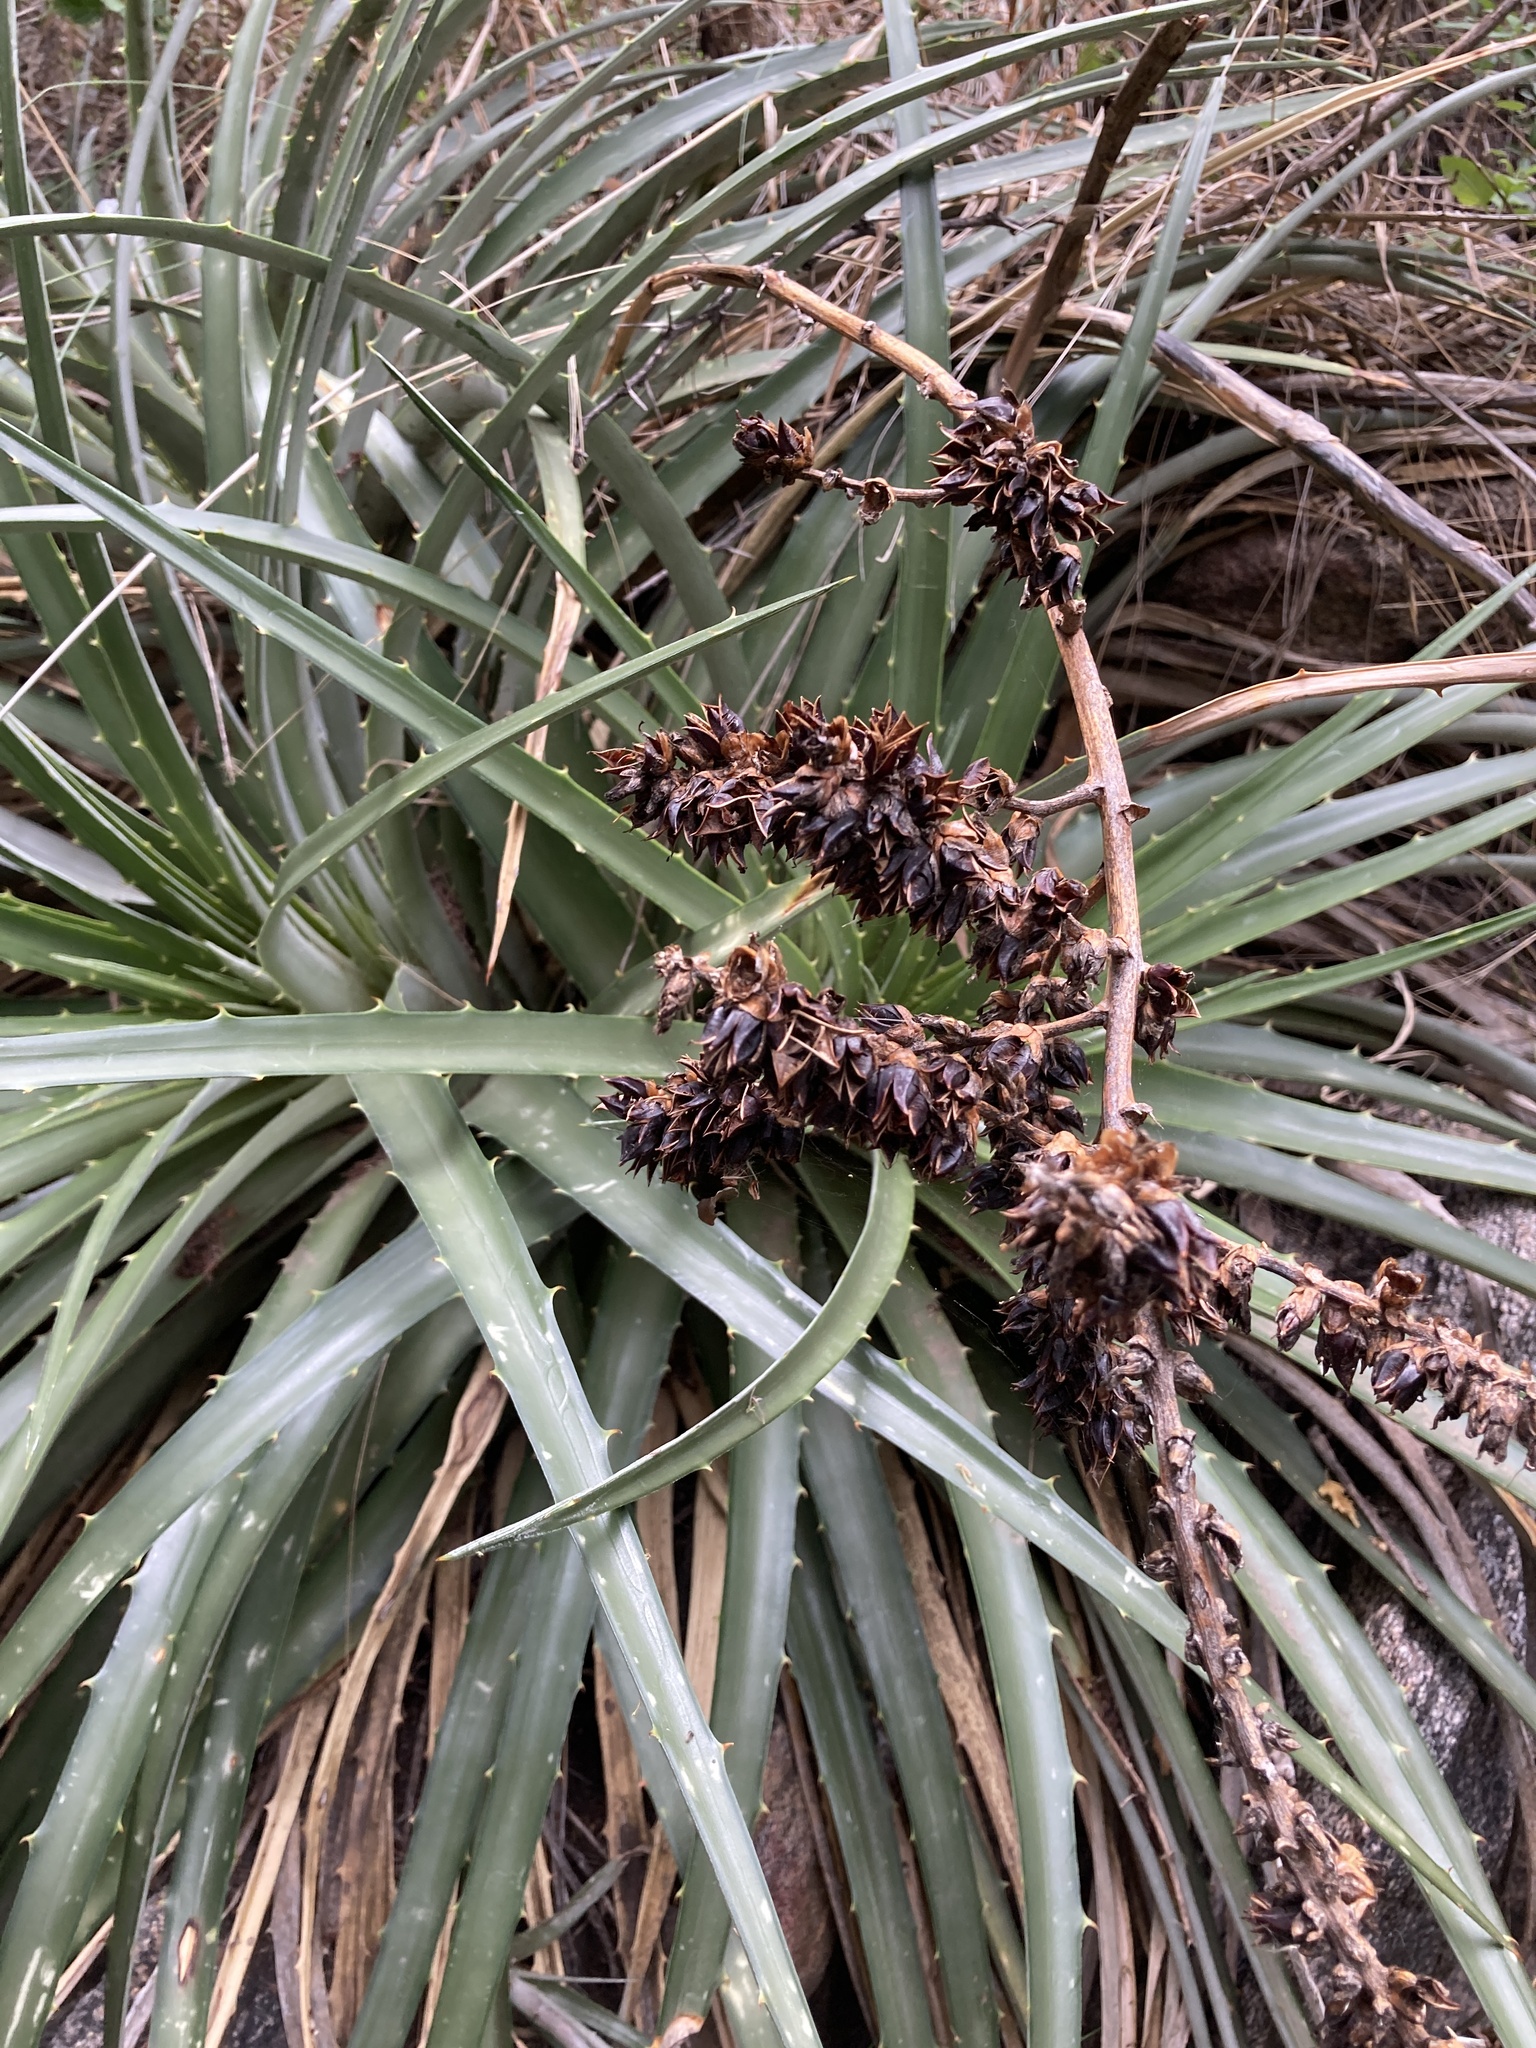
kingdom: Plantae
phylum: Tracheophyta
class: Liliopsida
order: Poales
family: Bromeliaceae
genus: Puya
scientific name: Puya spathacea
